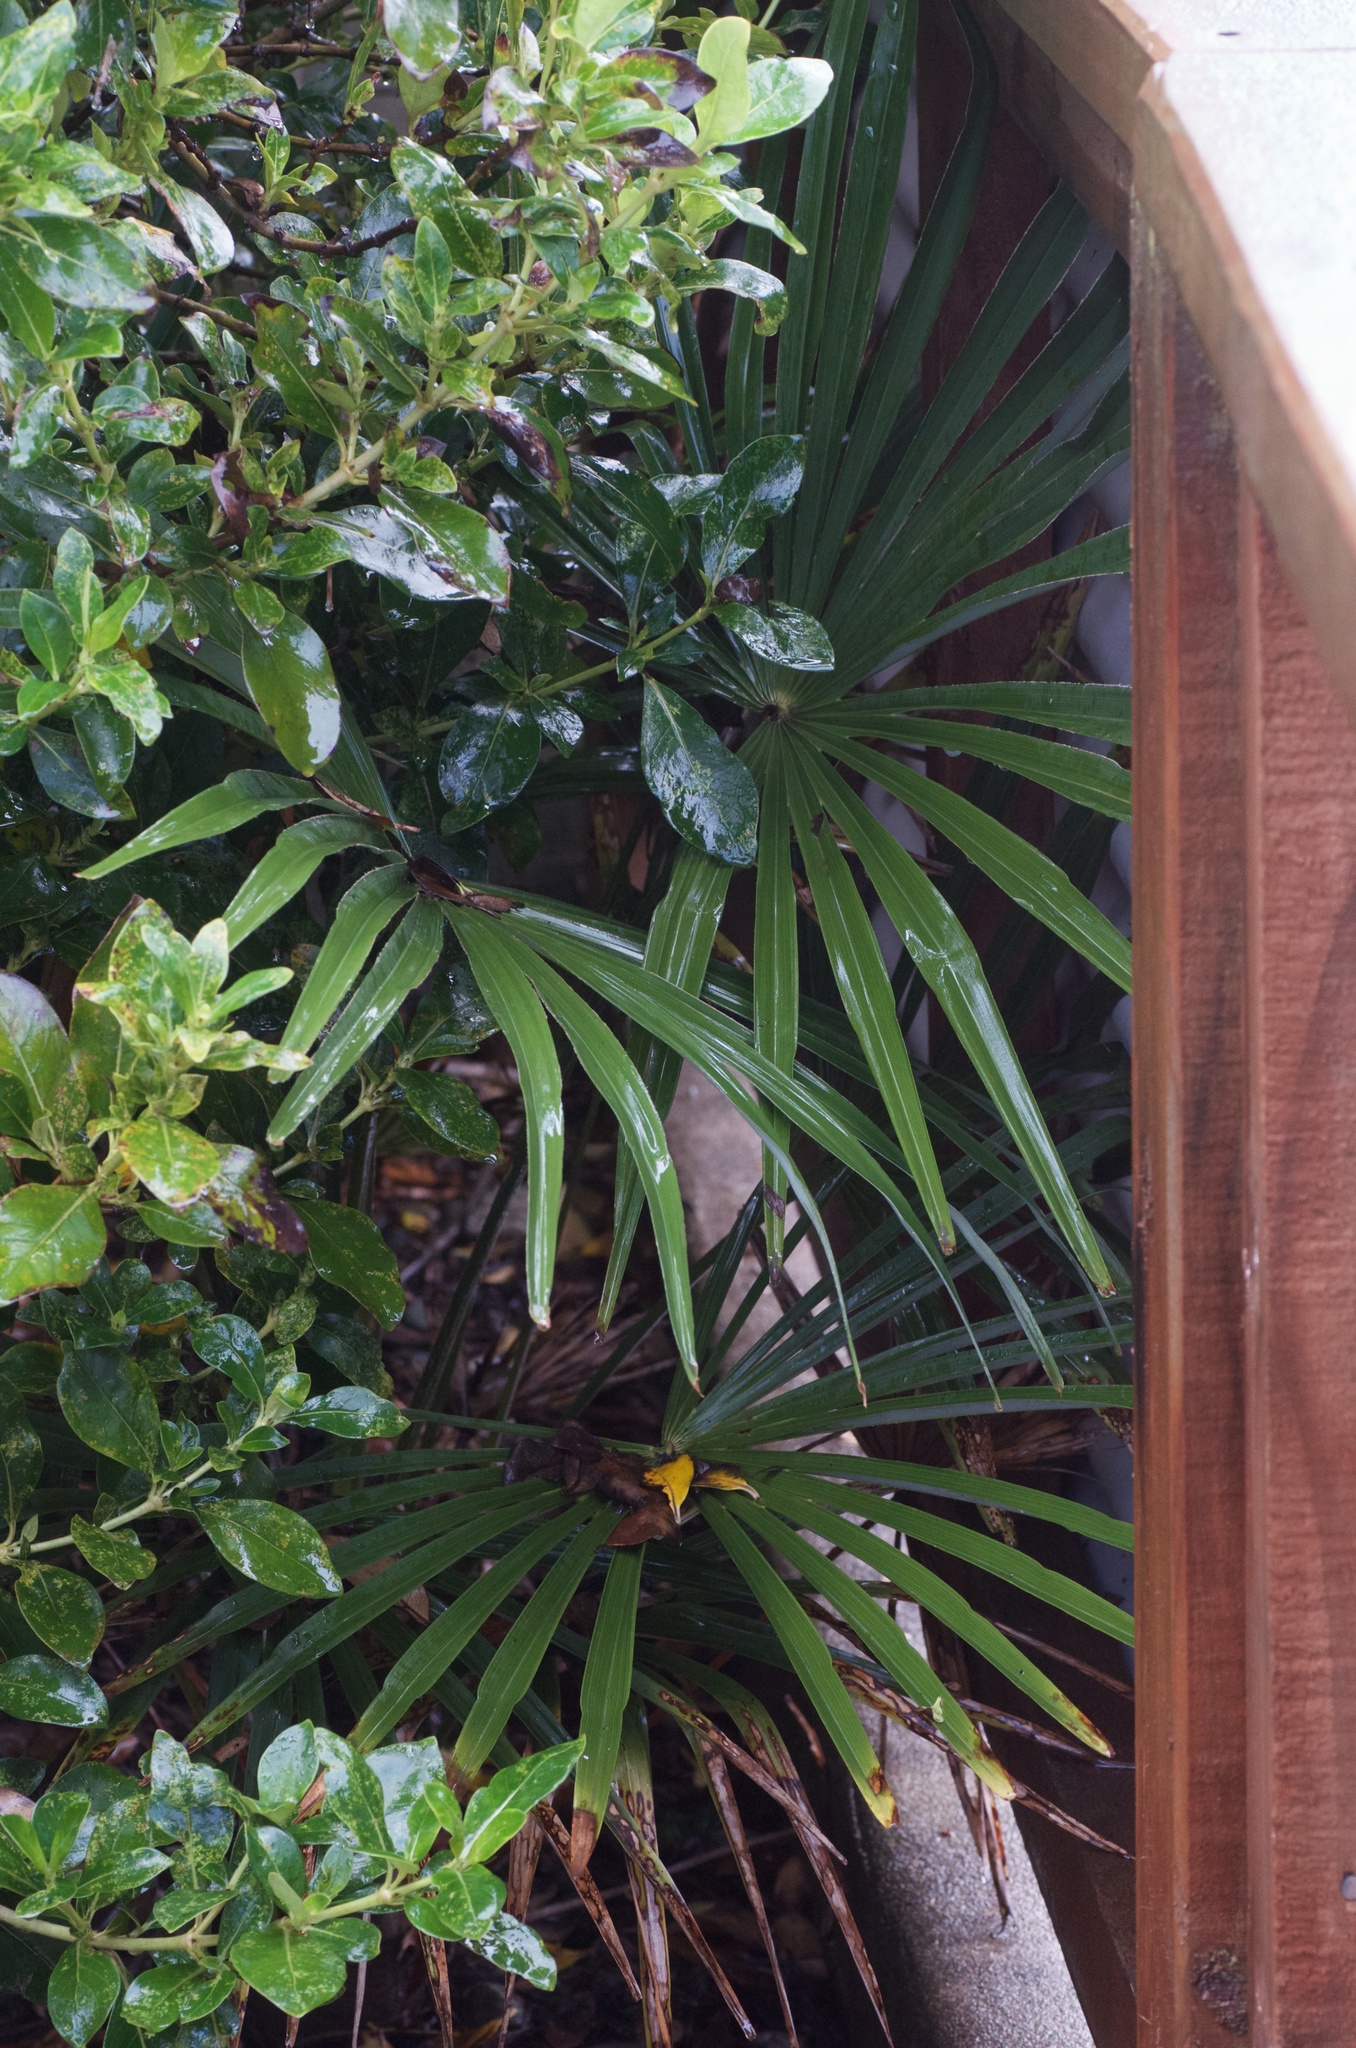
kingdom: Plantae
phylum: Tracheophyta
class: Liliopsida
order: Arecales
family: Arecaceae
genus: Trachycarpus
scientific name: Trachycarpus fortunei
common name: Chusan palm
